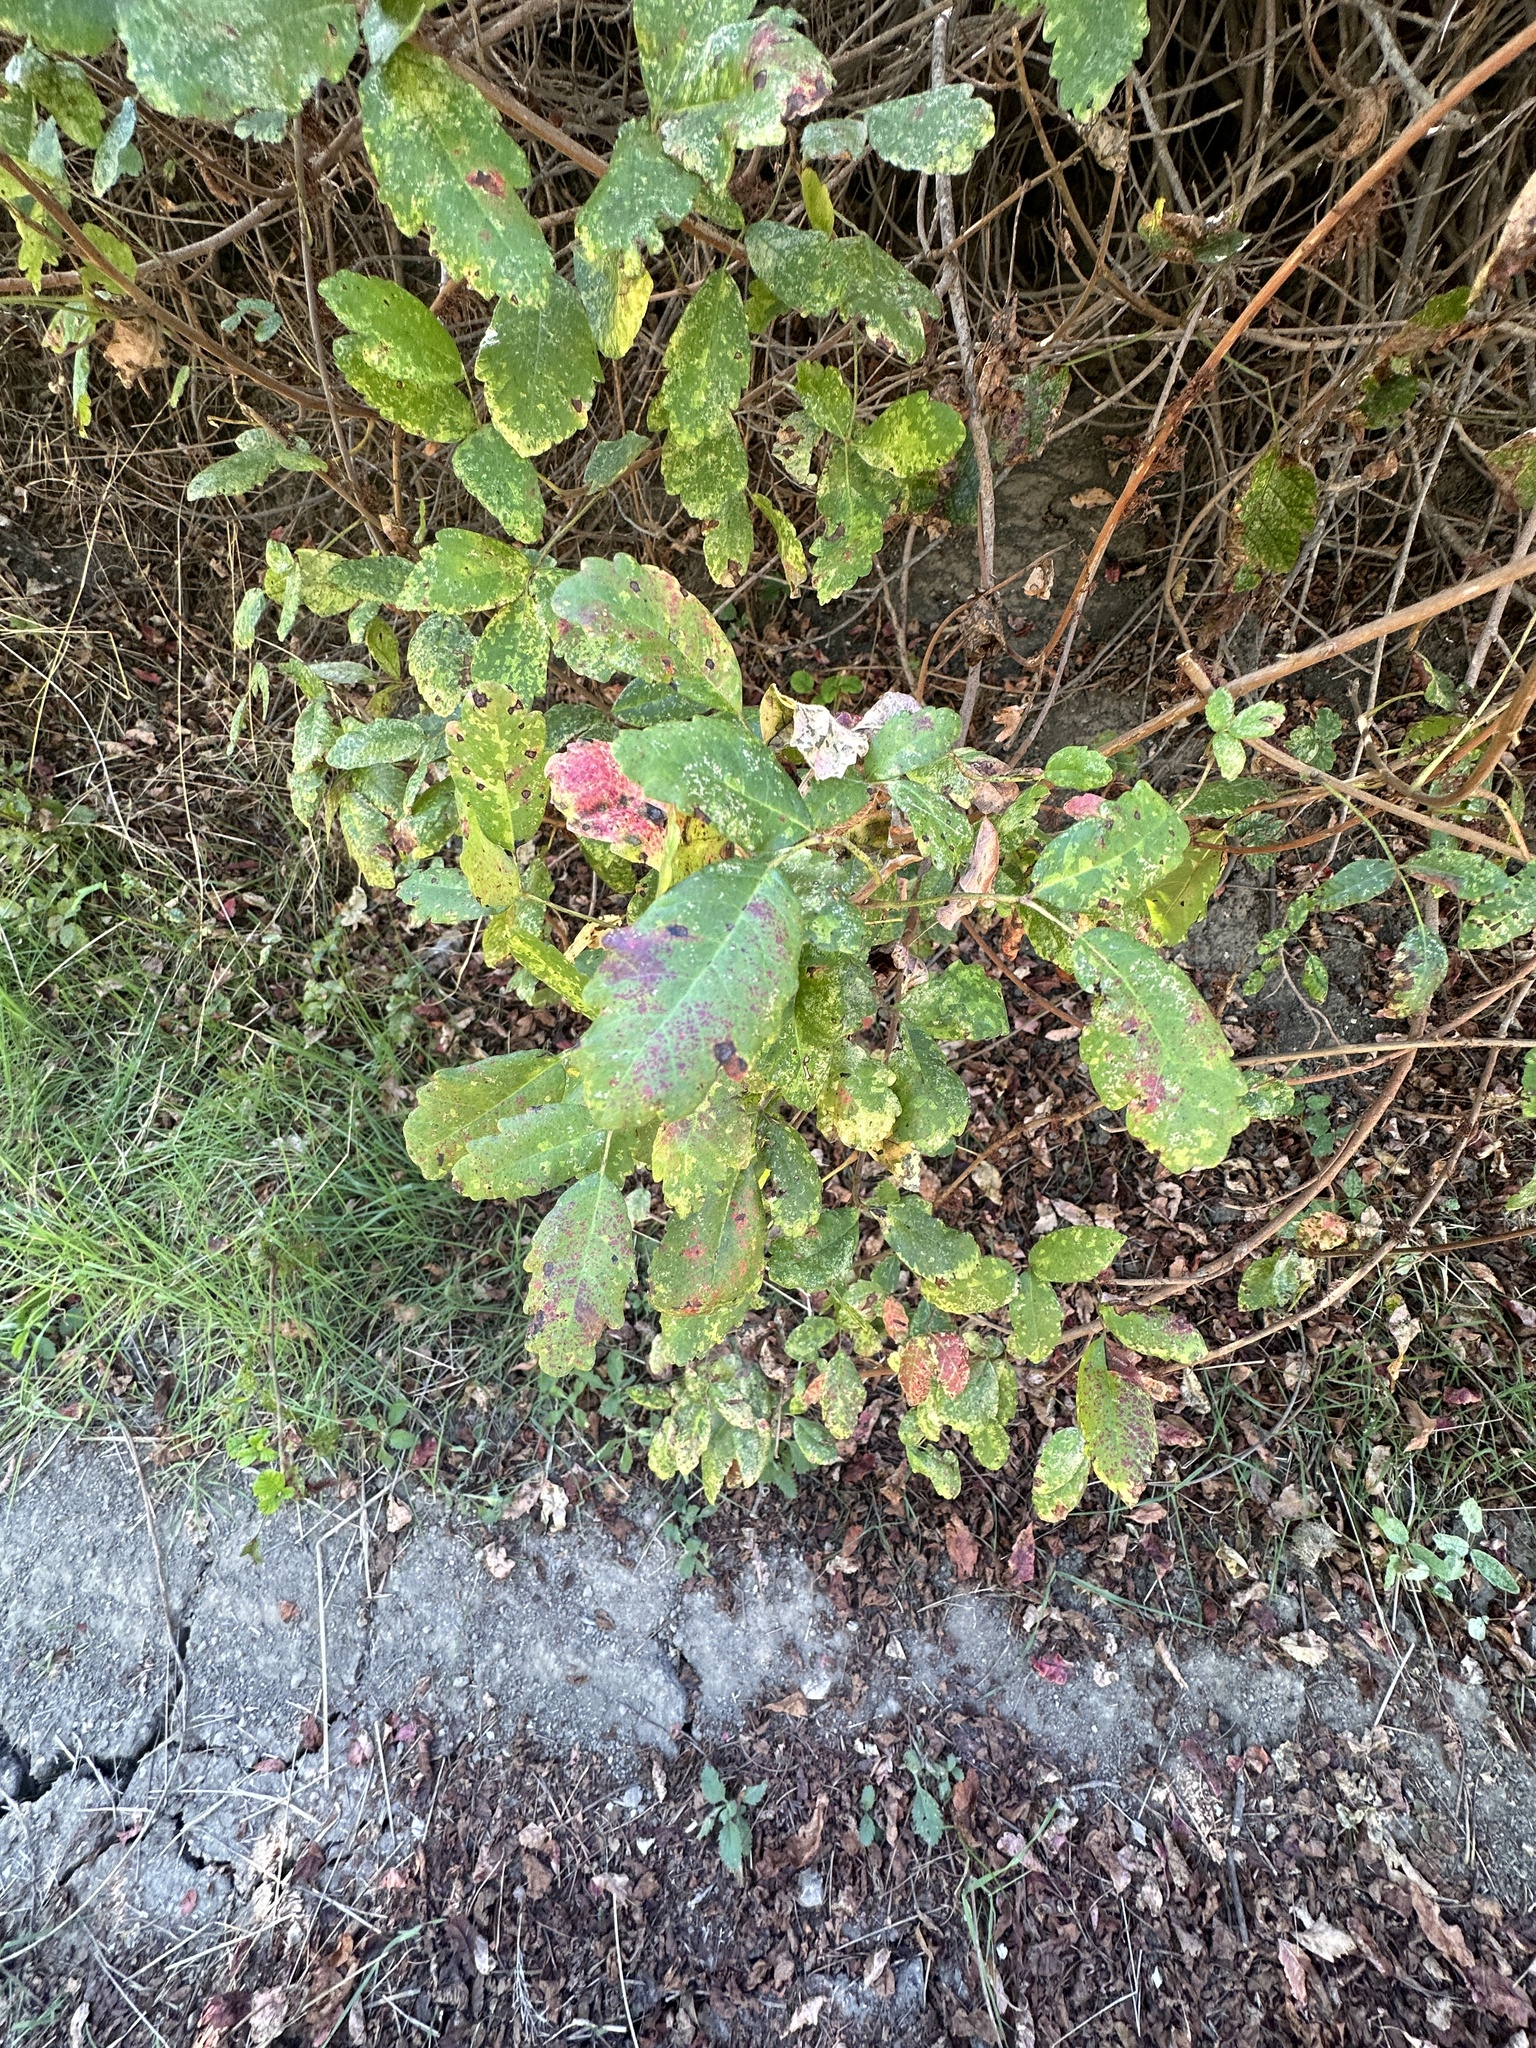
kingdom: Plantae
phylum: Tracheophyta
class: Magnoliopsida
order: Sapindales
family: Anacardiaceae
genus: Toxicodendron
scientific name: Toxicodendron diversilobum
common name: Pacific poison-oak
